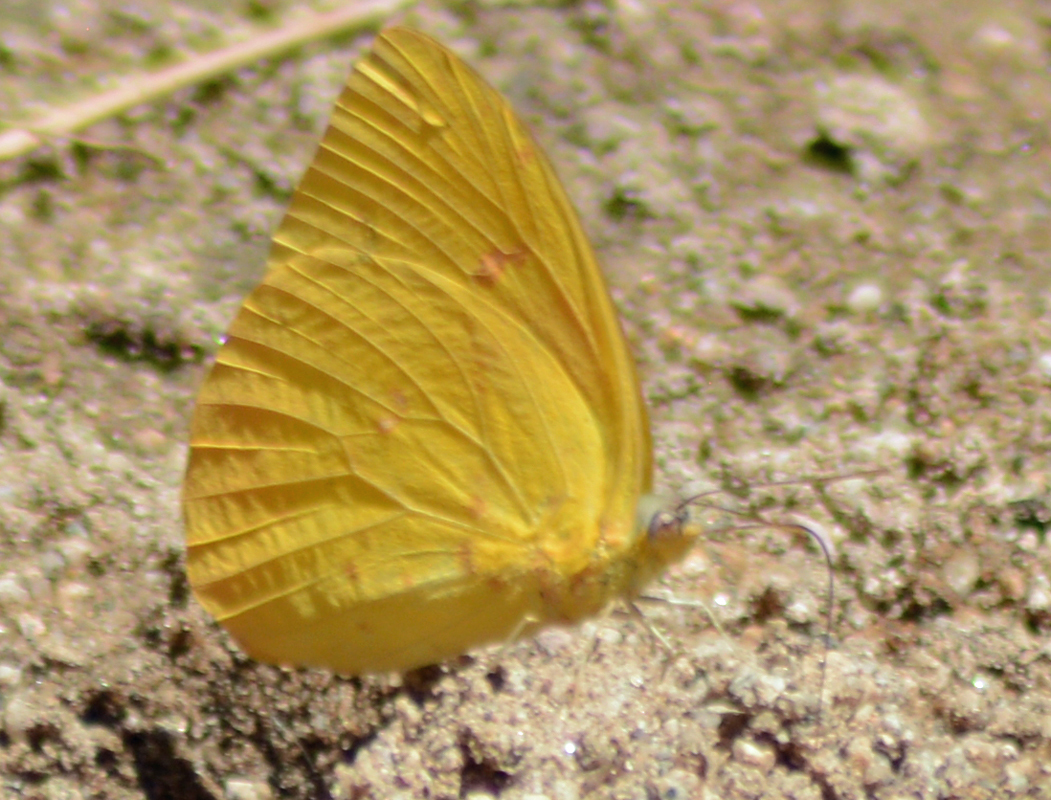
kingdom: Animalia
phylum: Arthropoda
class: Insecta
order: Lepidoptera
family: Pieridae
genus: Phoebis
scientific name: Phoebis agarithe
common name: Large orange sulphur
